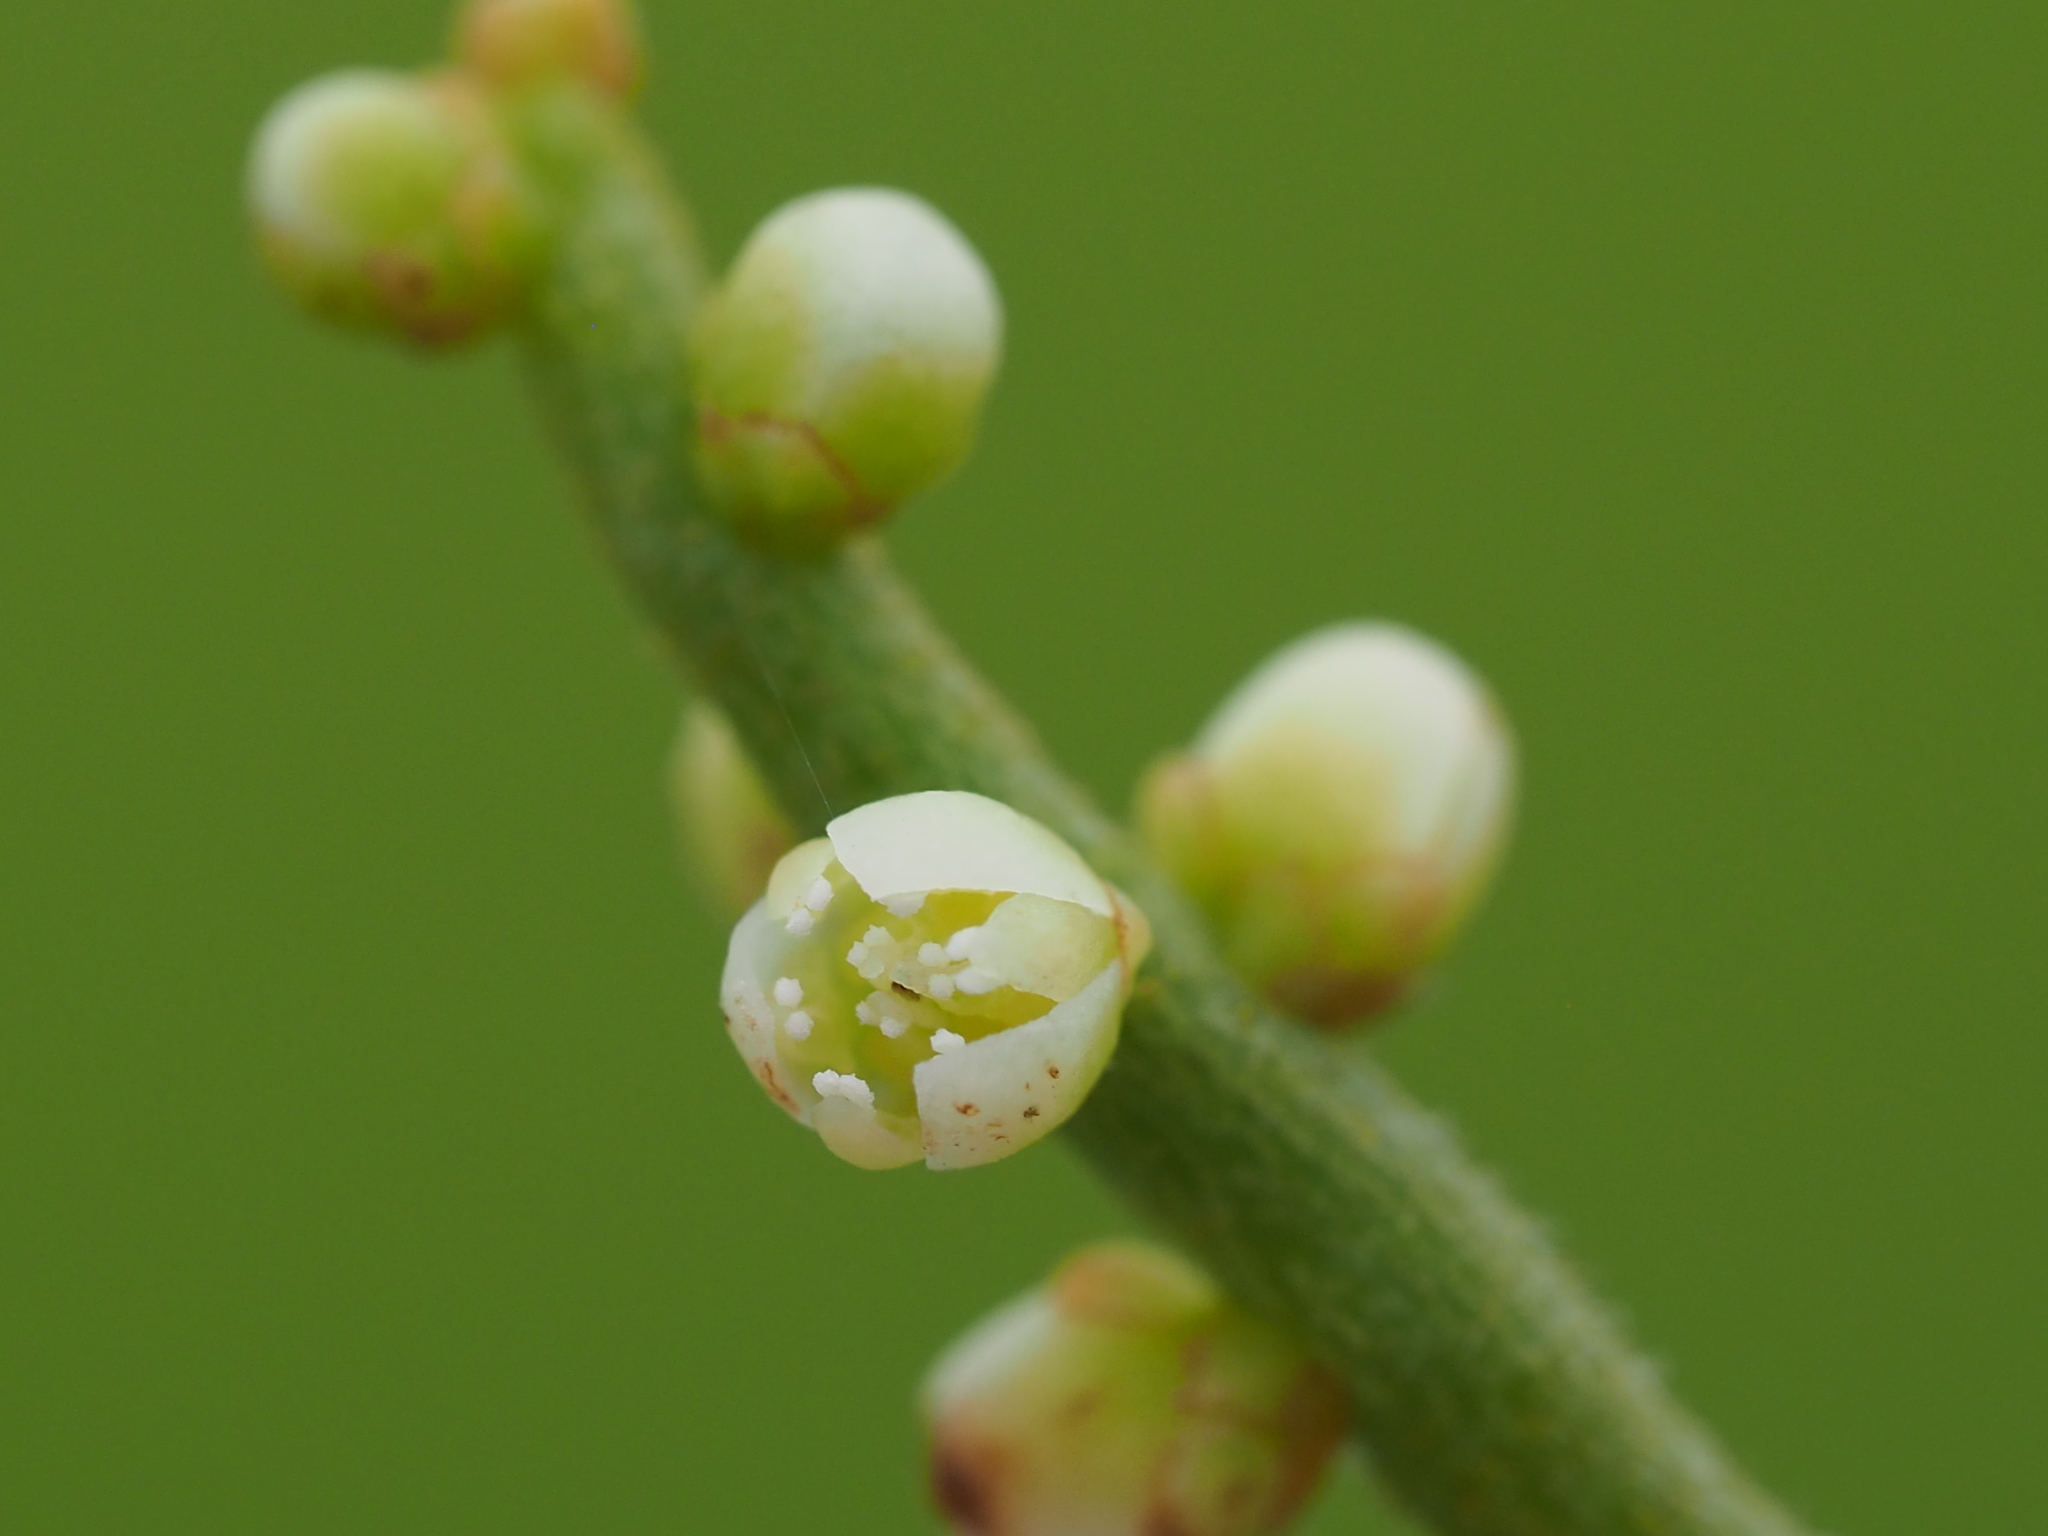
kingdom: Plantae
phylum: Tracheophyta
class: Magnoliopsida
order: Laurales
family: Lauraceae
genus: Cassytha
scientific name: Cassytha filiformis
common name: Dodder-laurel
